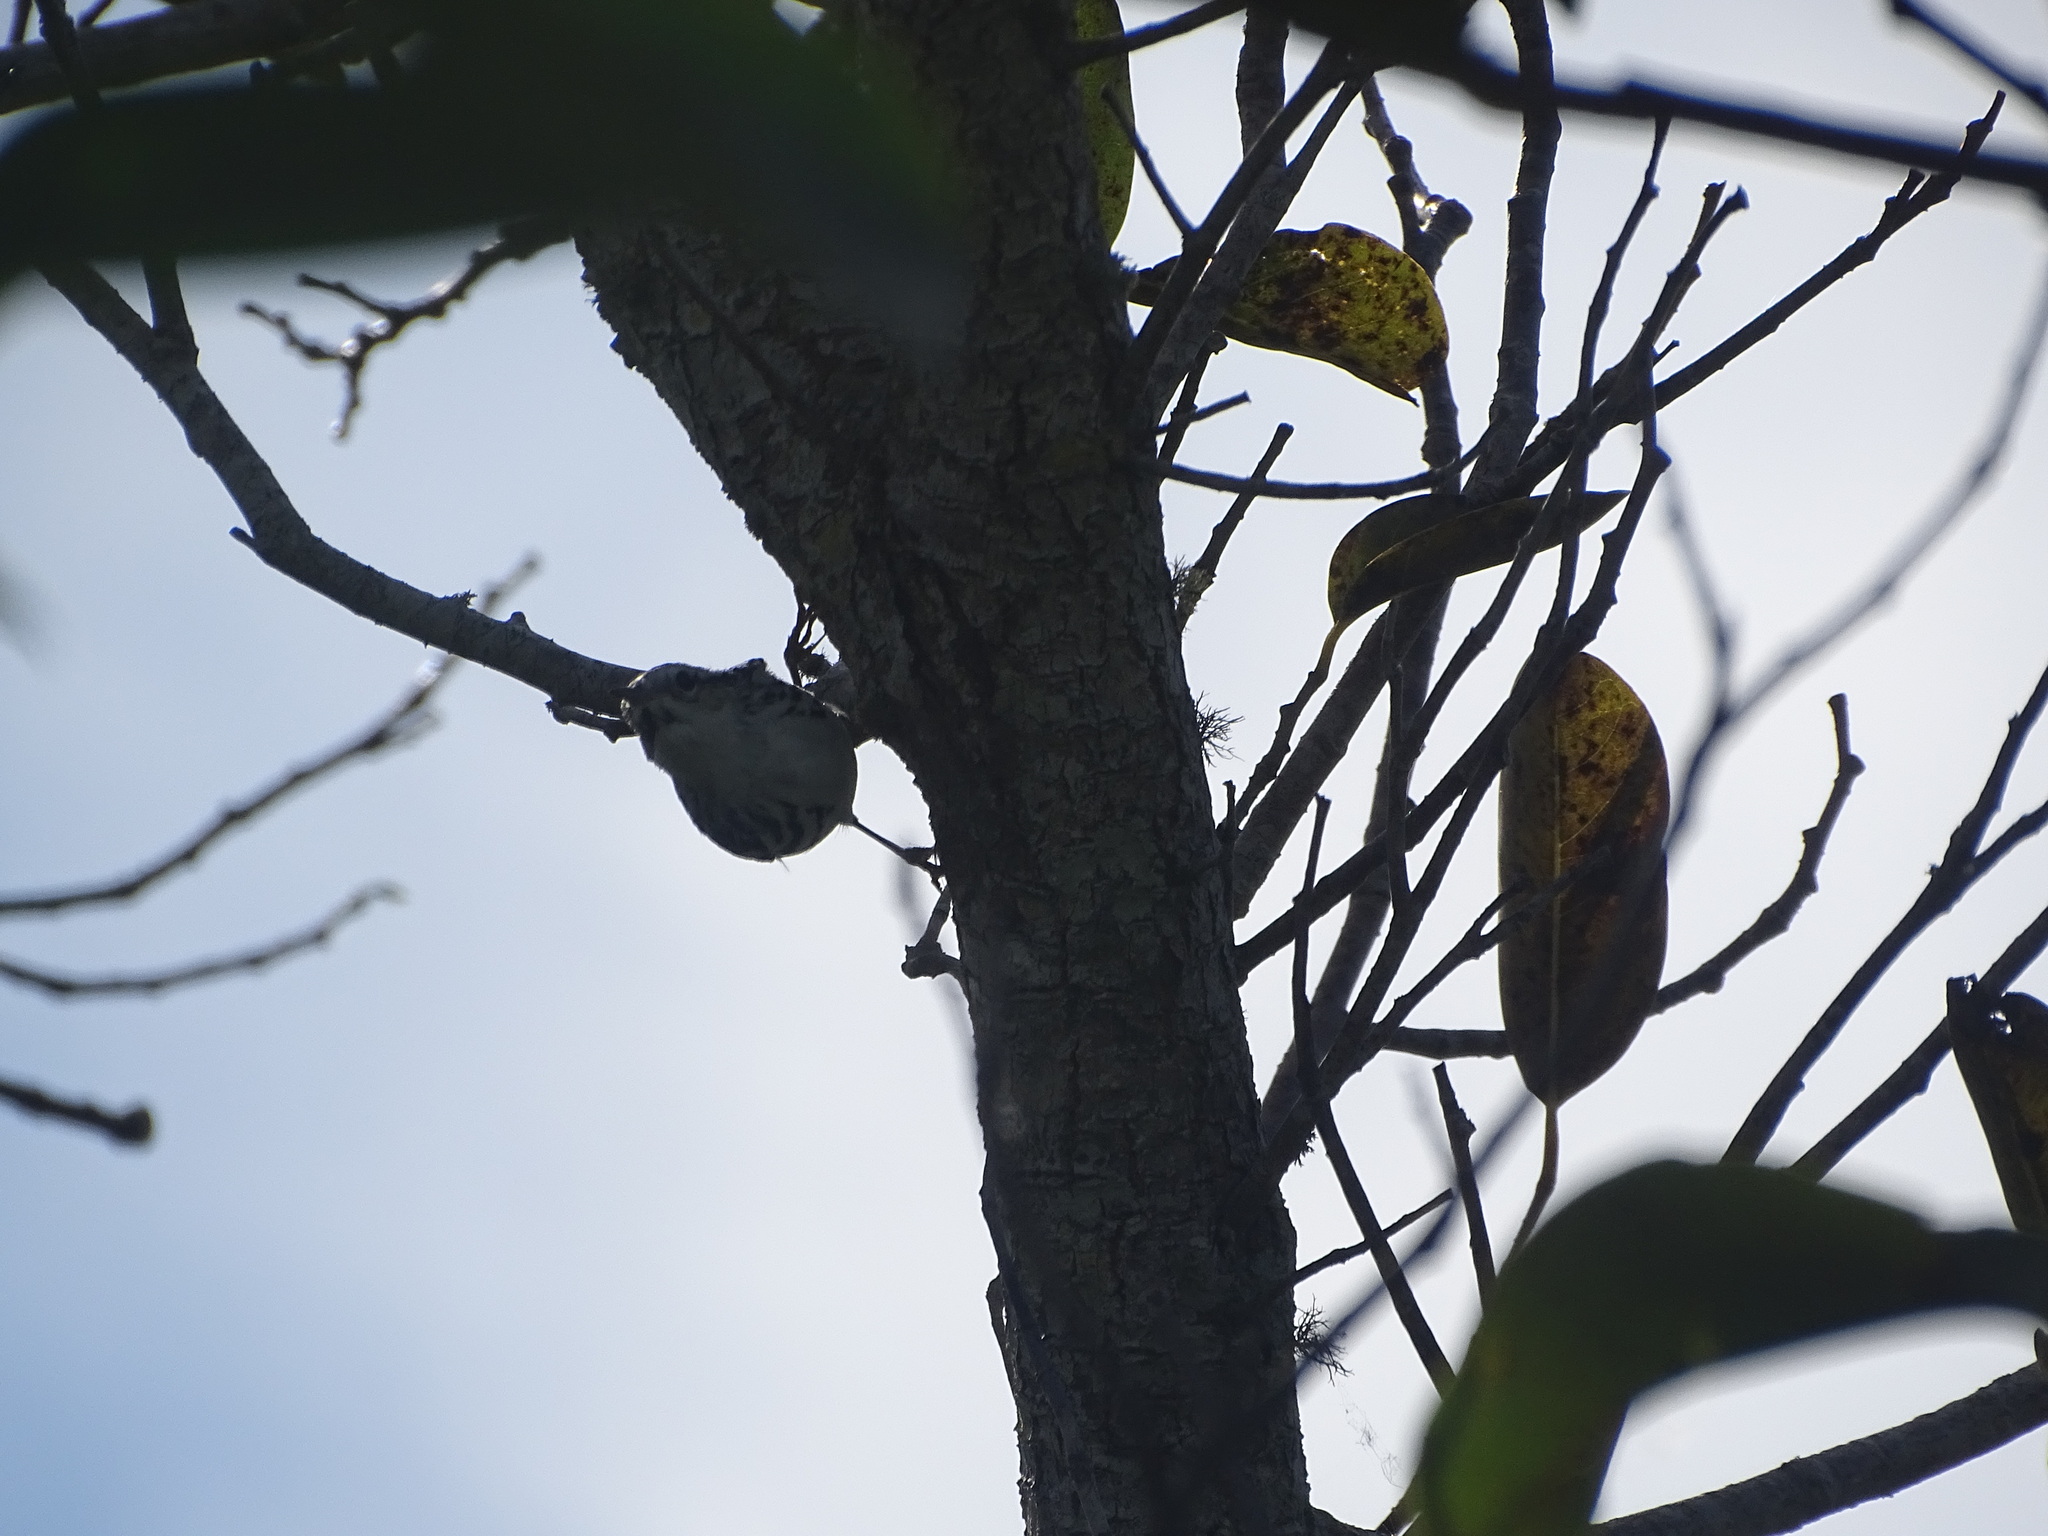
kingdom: Animalia
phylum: Chordata
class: Aves
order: Passeriformes
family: Parulidae
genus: Mniotilta
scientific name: Mniotilta varia
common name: Black-and-white warbler
